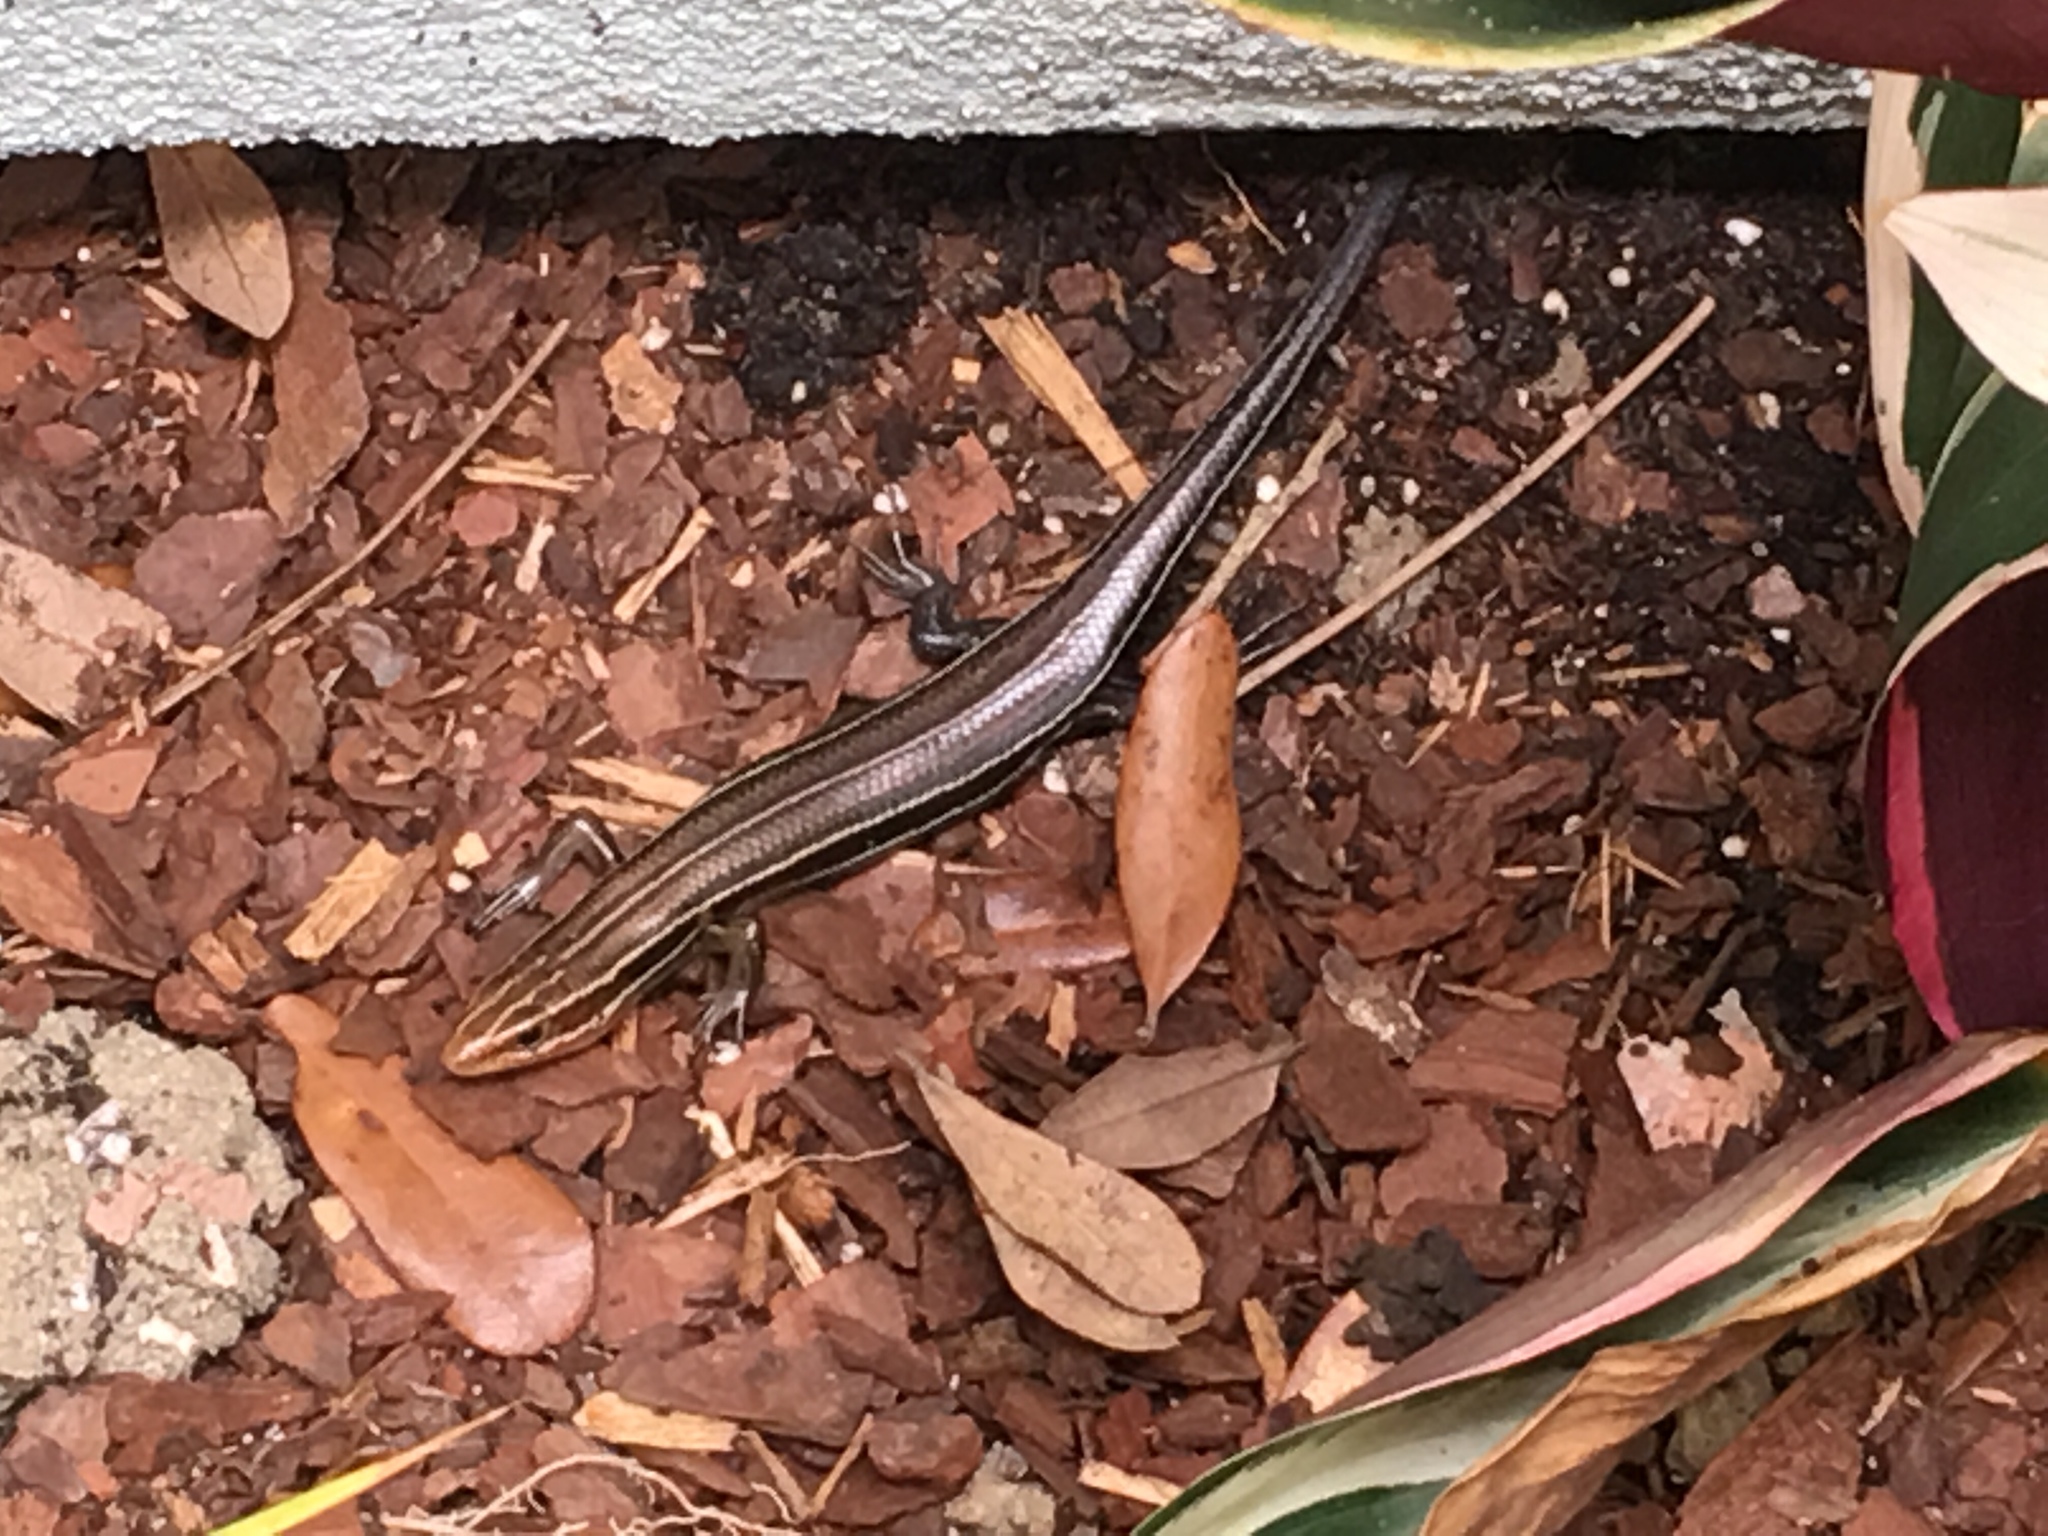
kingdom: Animalia
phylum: Chordata
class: Squamata
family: Scincidae
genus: Plestiodon
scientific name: Plestiodon inexpectatus
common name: Southeastern five-lined skink
